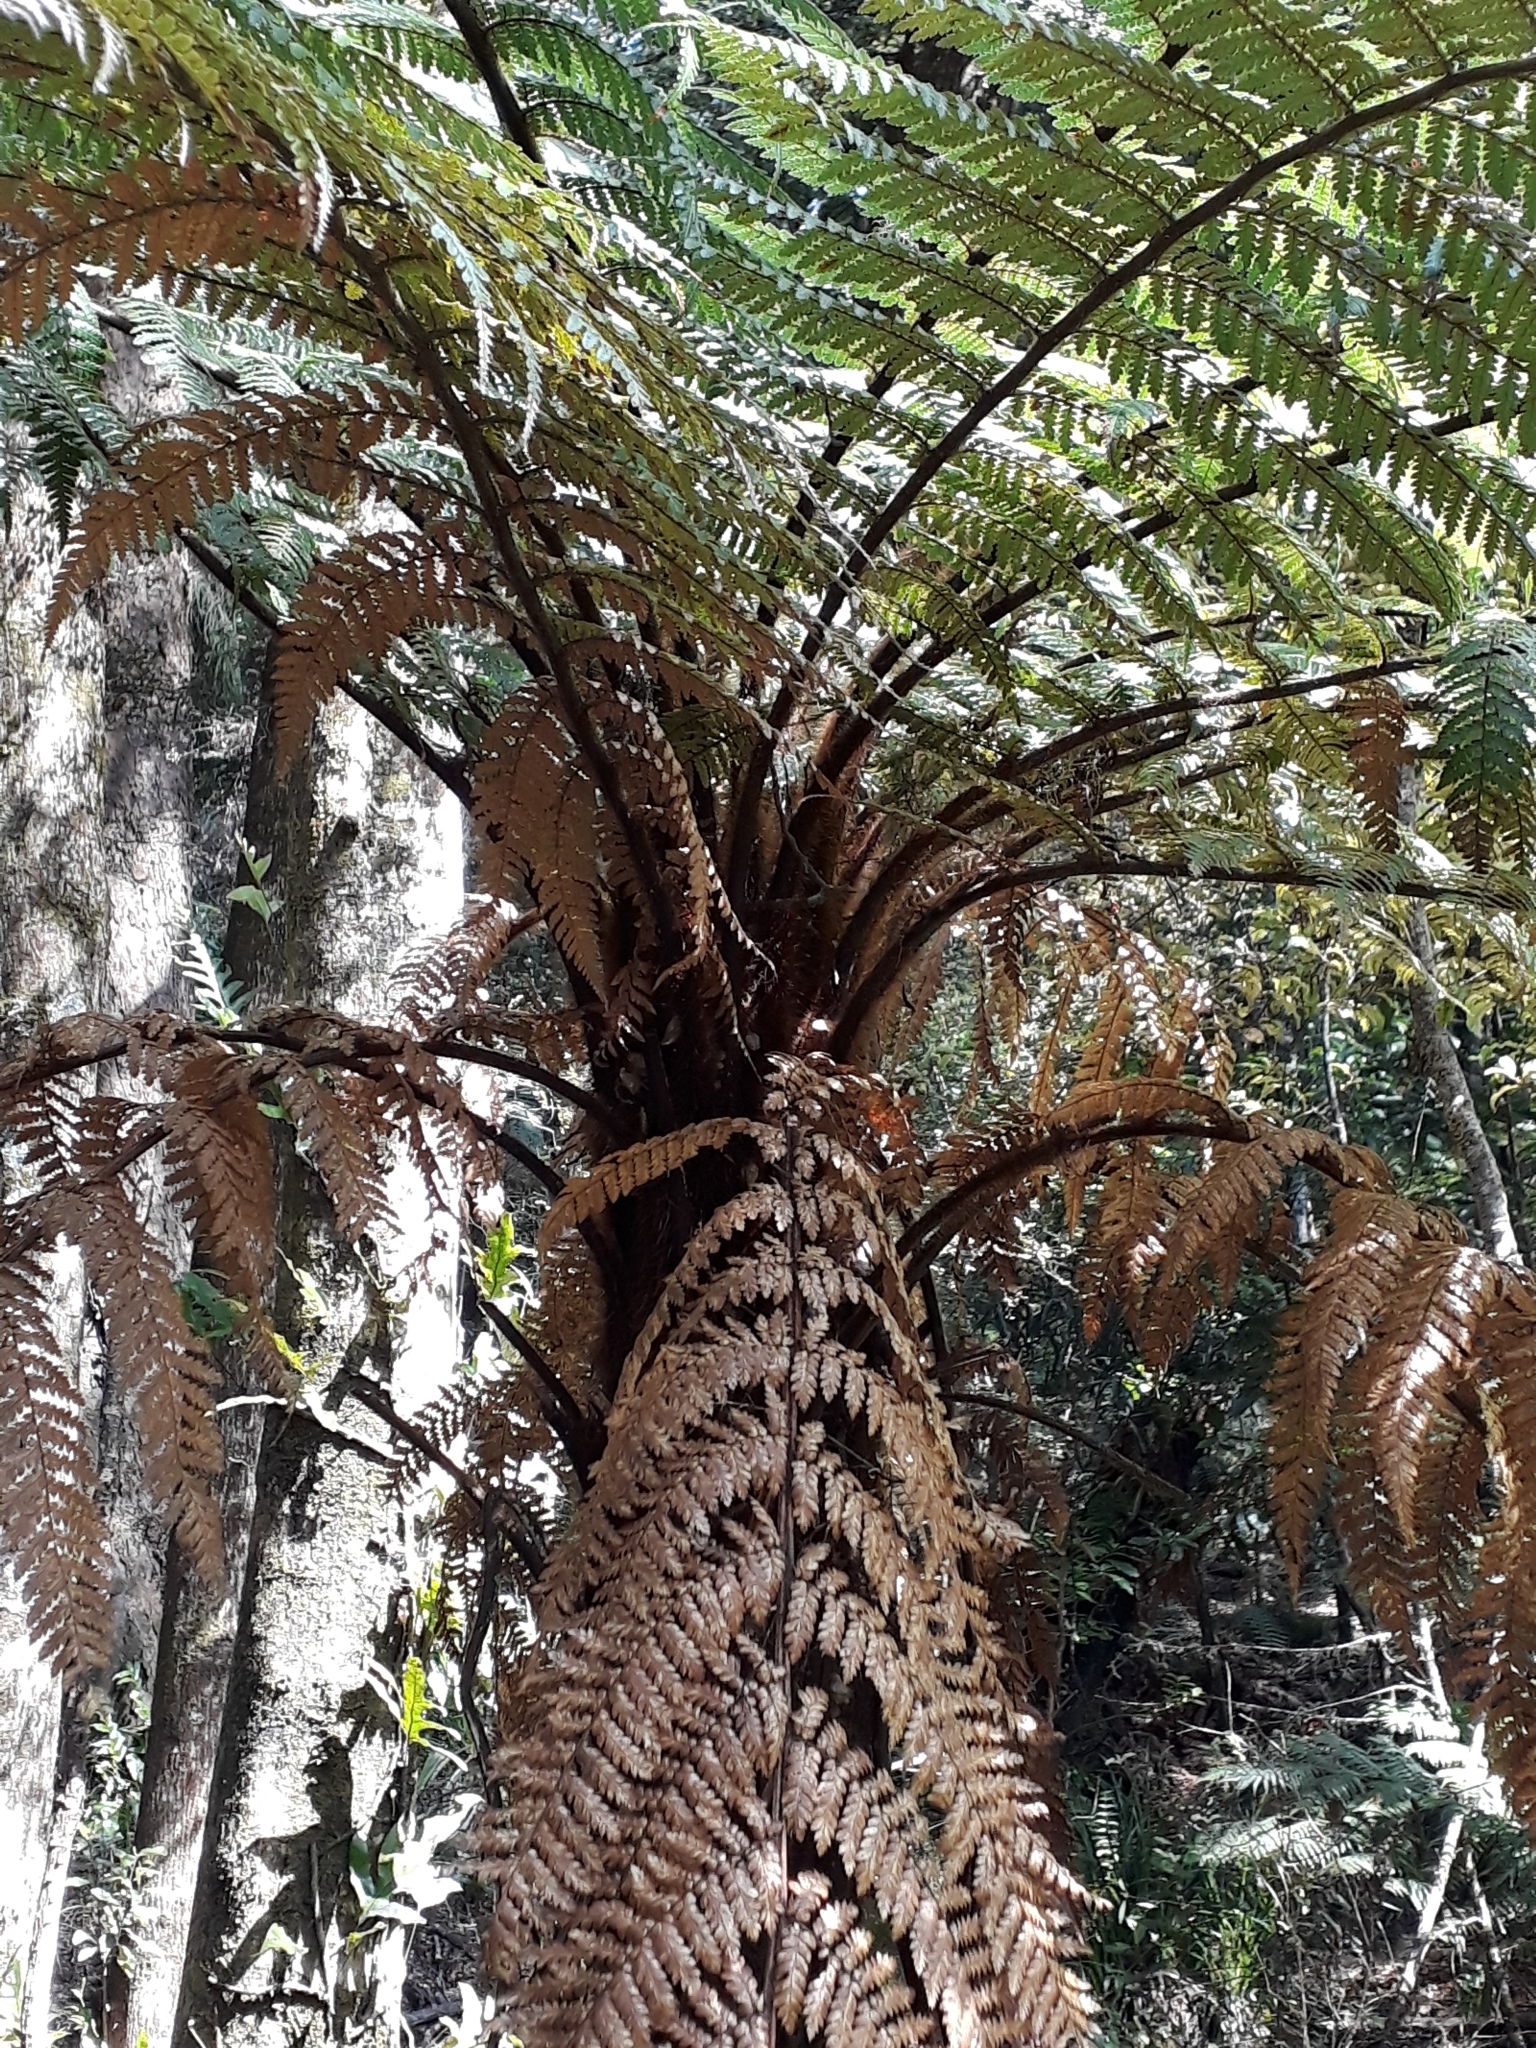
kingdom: Plantae
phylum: Tracheophyta
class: Polypodiopsida
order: Cyatheales
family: Dicksoniaceae
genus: Dicksonia
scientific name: Dicksonia squarrosa
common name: Hard treefern
